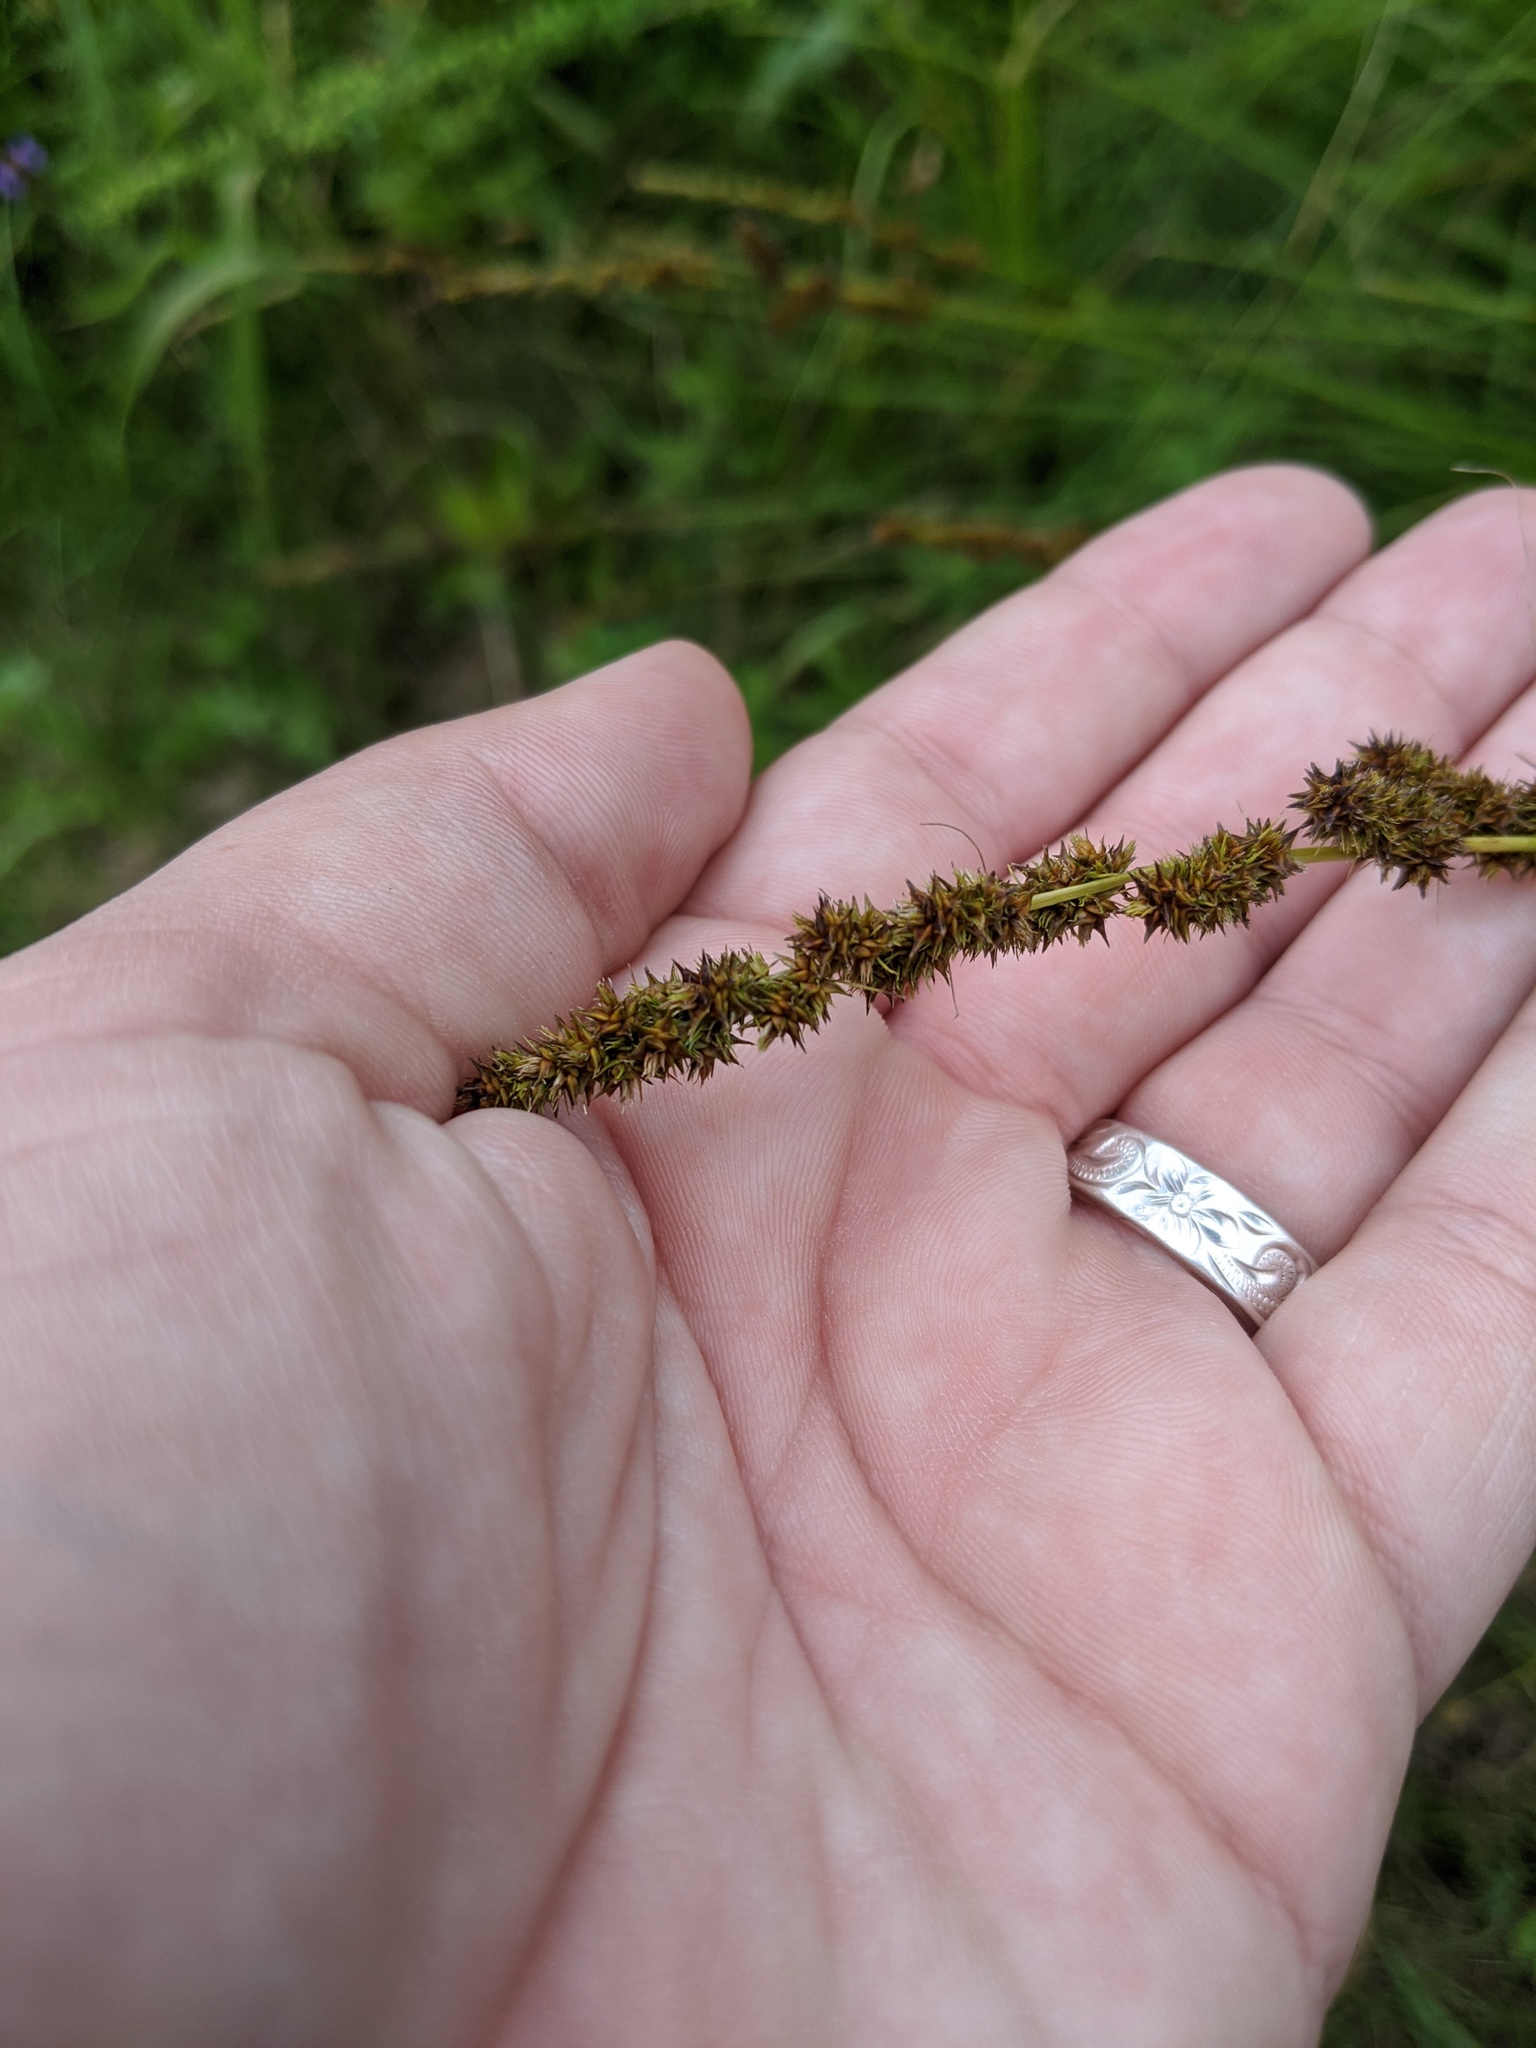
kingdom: Plantae
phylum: Tracheophyta
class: Liliopsida
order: Poales
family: Cyperaceae
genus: Carex
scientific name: Carex vulpinoidea
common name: American fox-sedge
